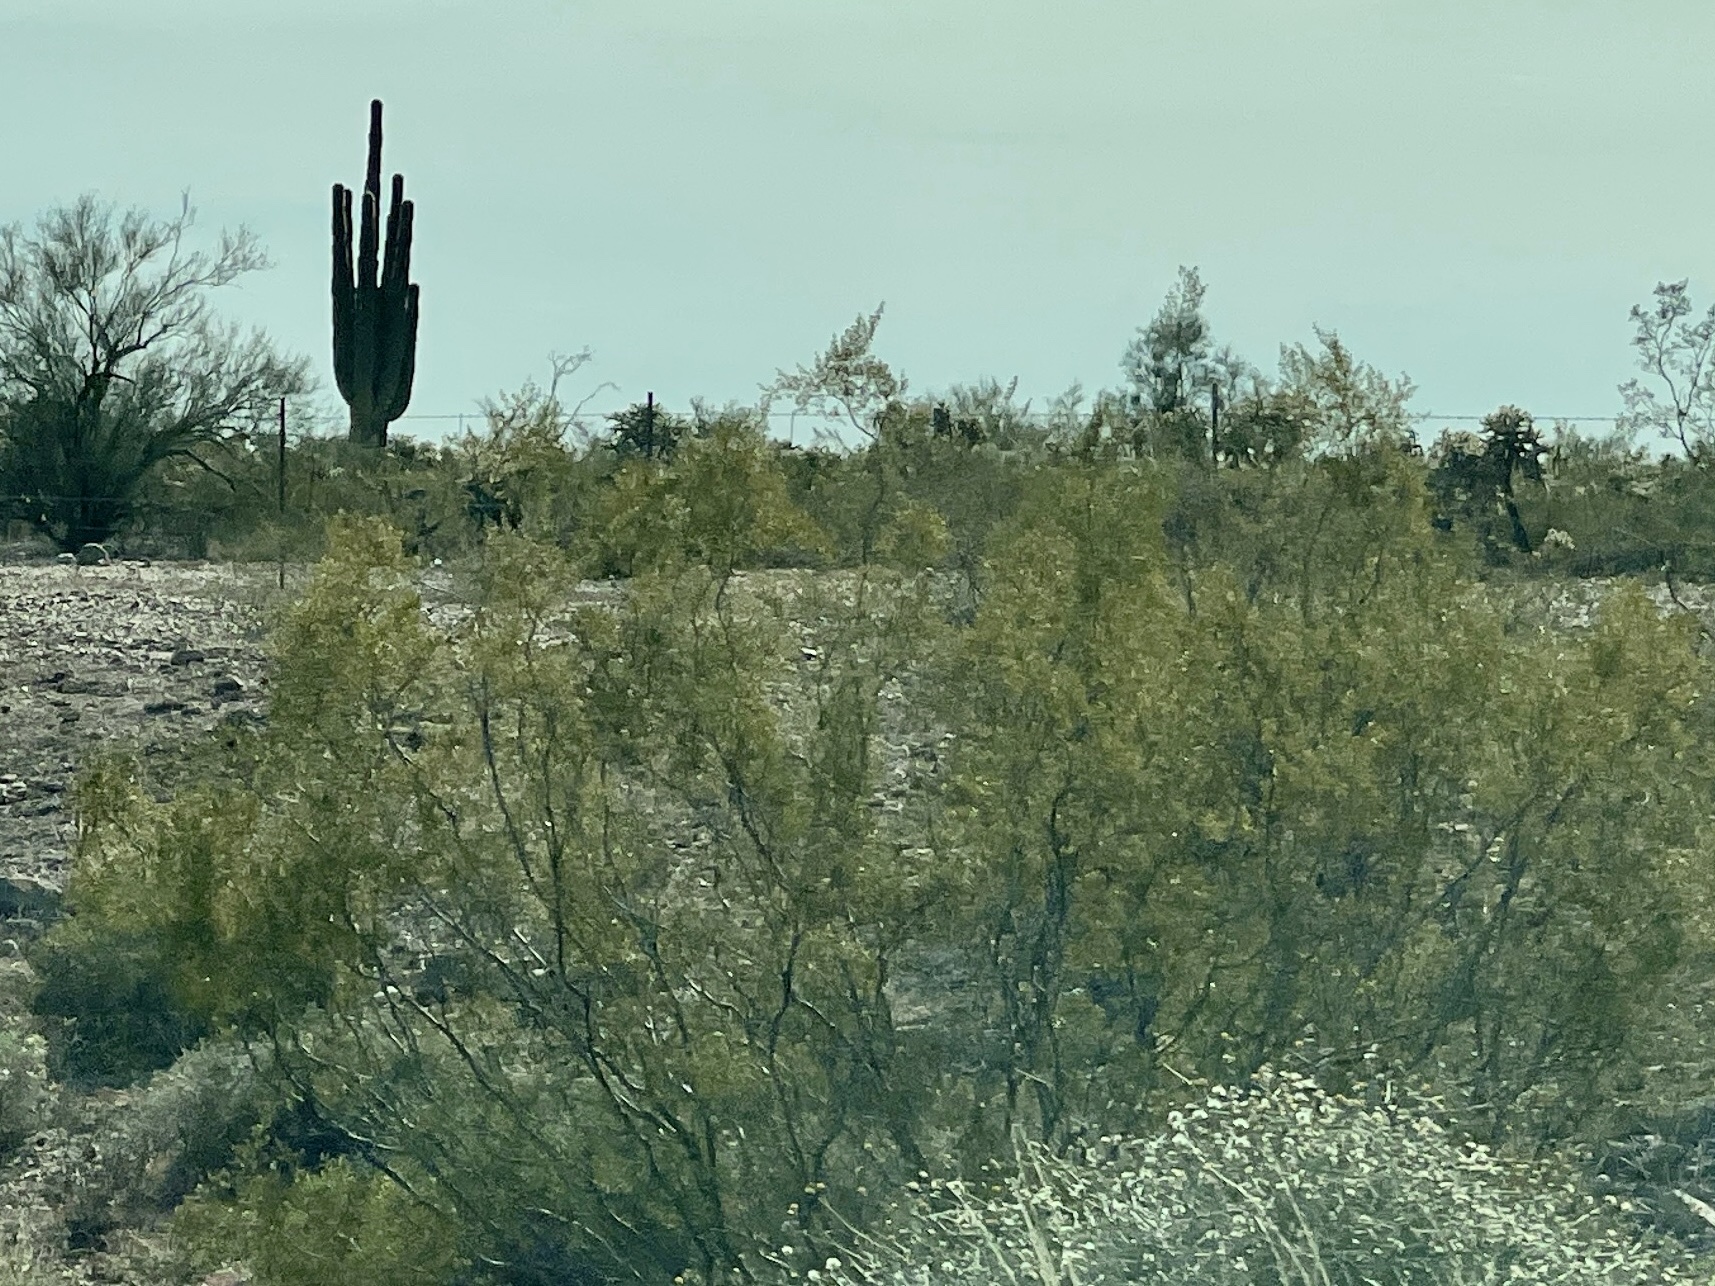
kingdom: Plantae
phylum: Tracheophyta
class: Magnoliopsida
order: Zygophyllales
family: Zygophyllaceae
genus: Larrea
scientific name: Larrea tridentata
